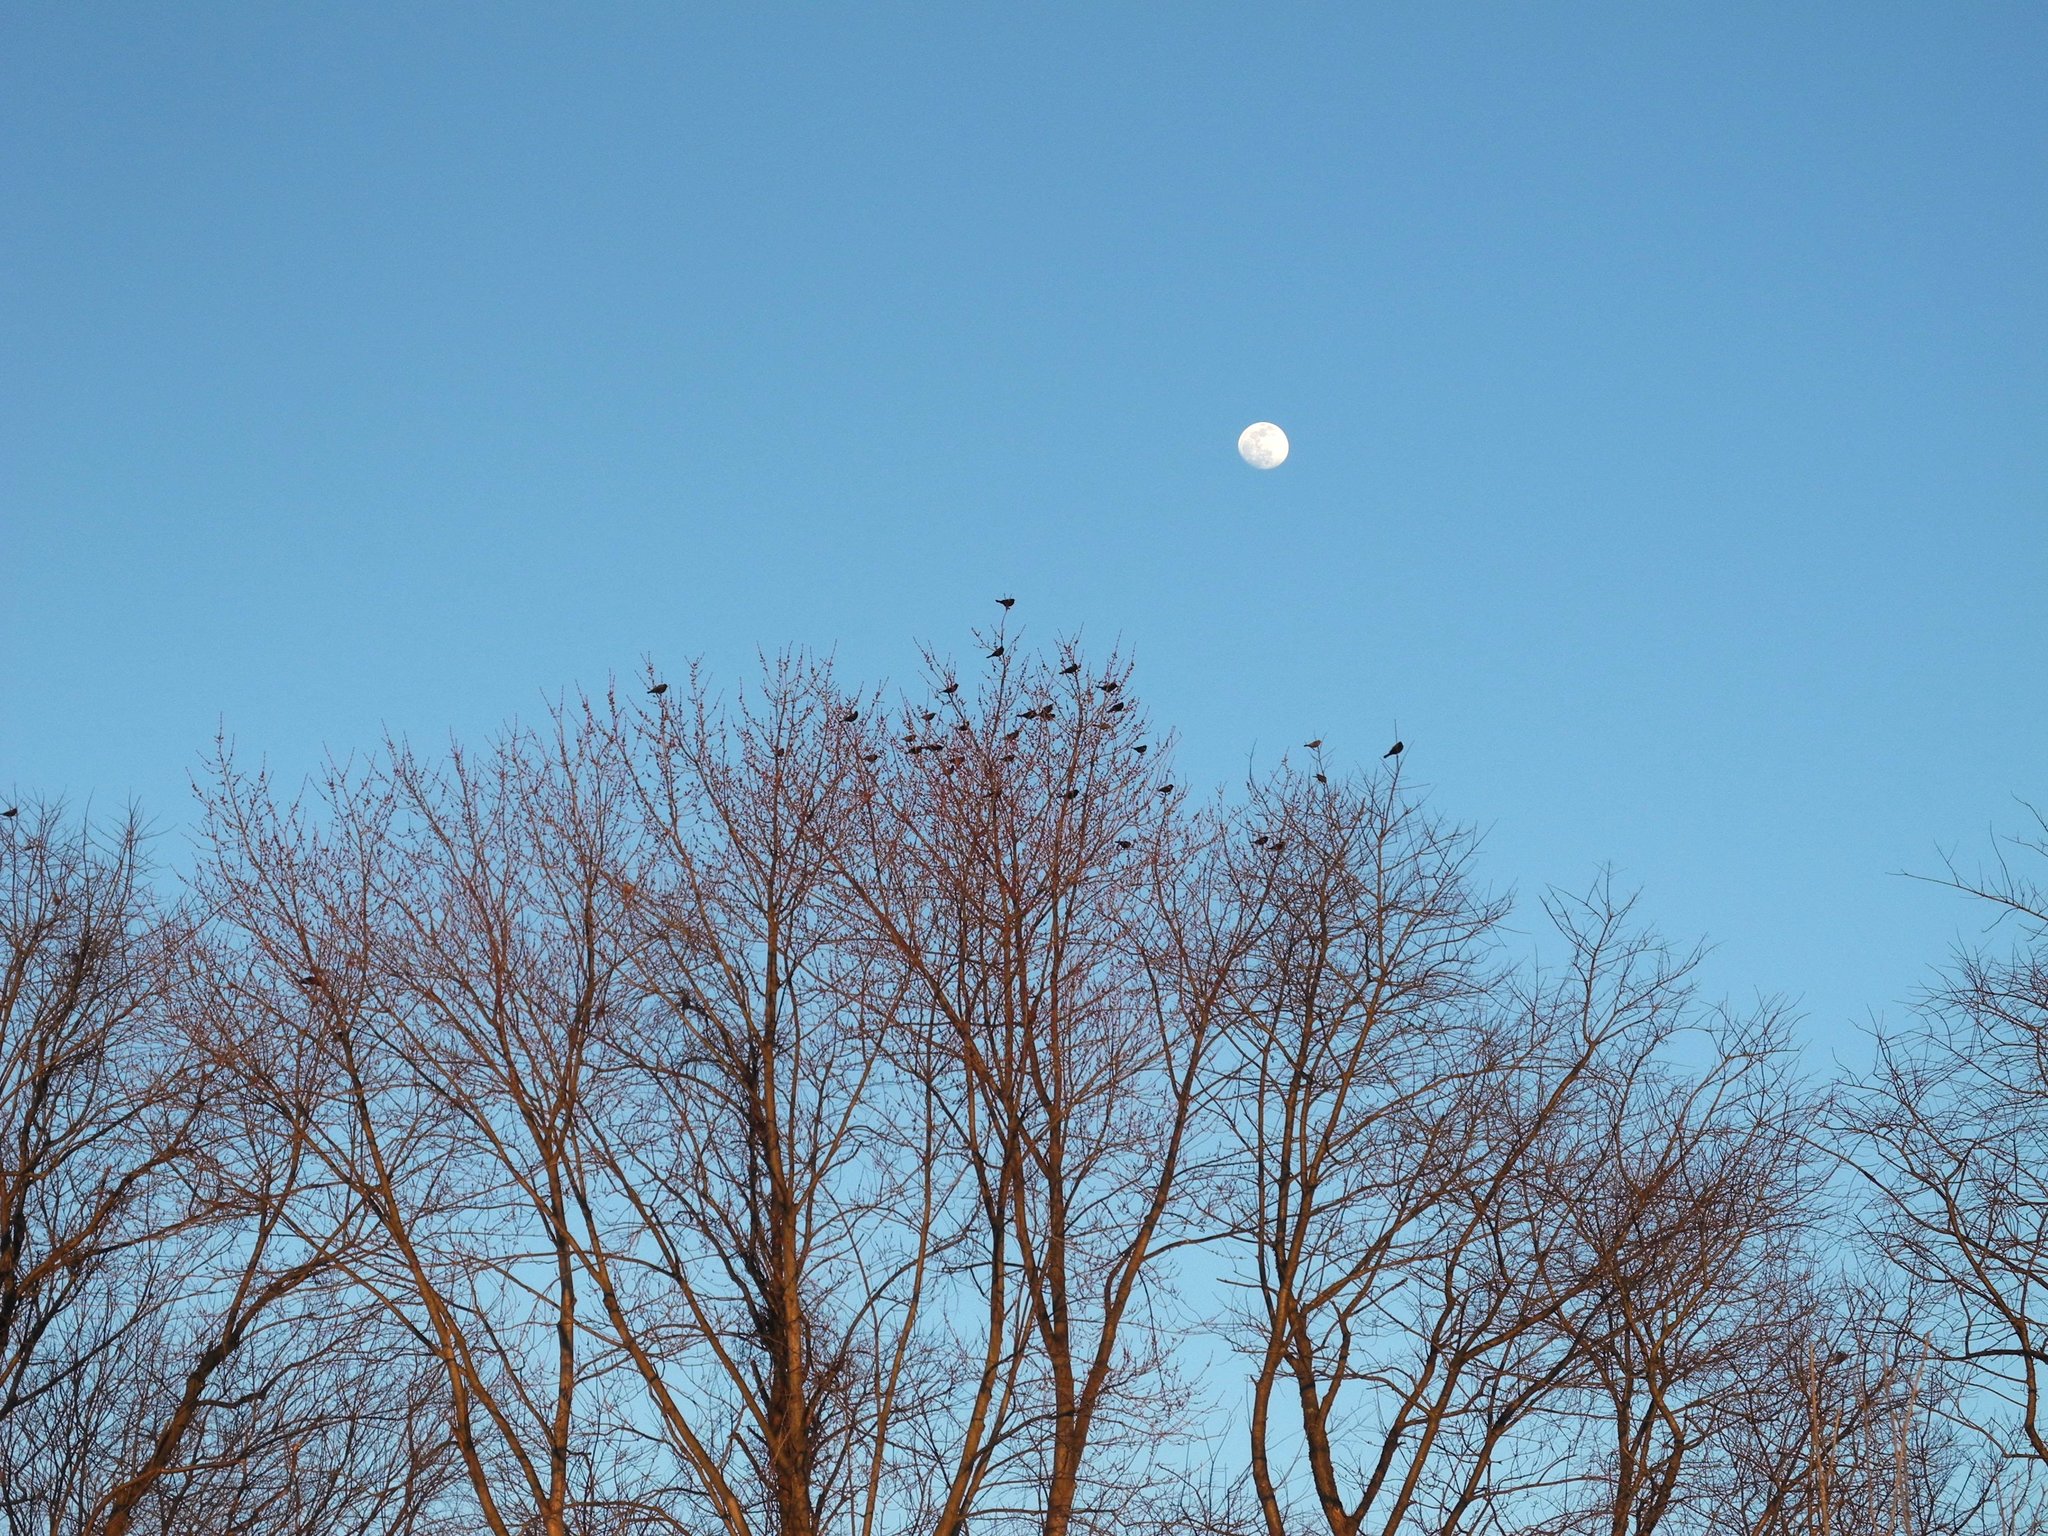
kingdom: Animalia
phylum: Chordata
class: Aves
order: Passeriformes
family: Icteridae
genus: Agelaius
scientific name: Agelaius phoeniceus
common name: Red-winged blackbird
